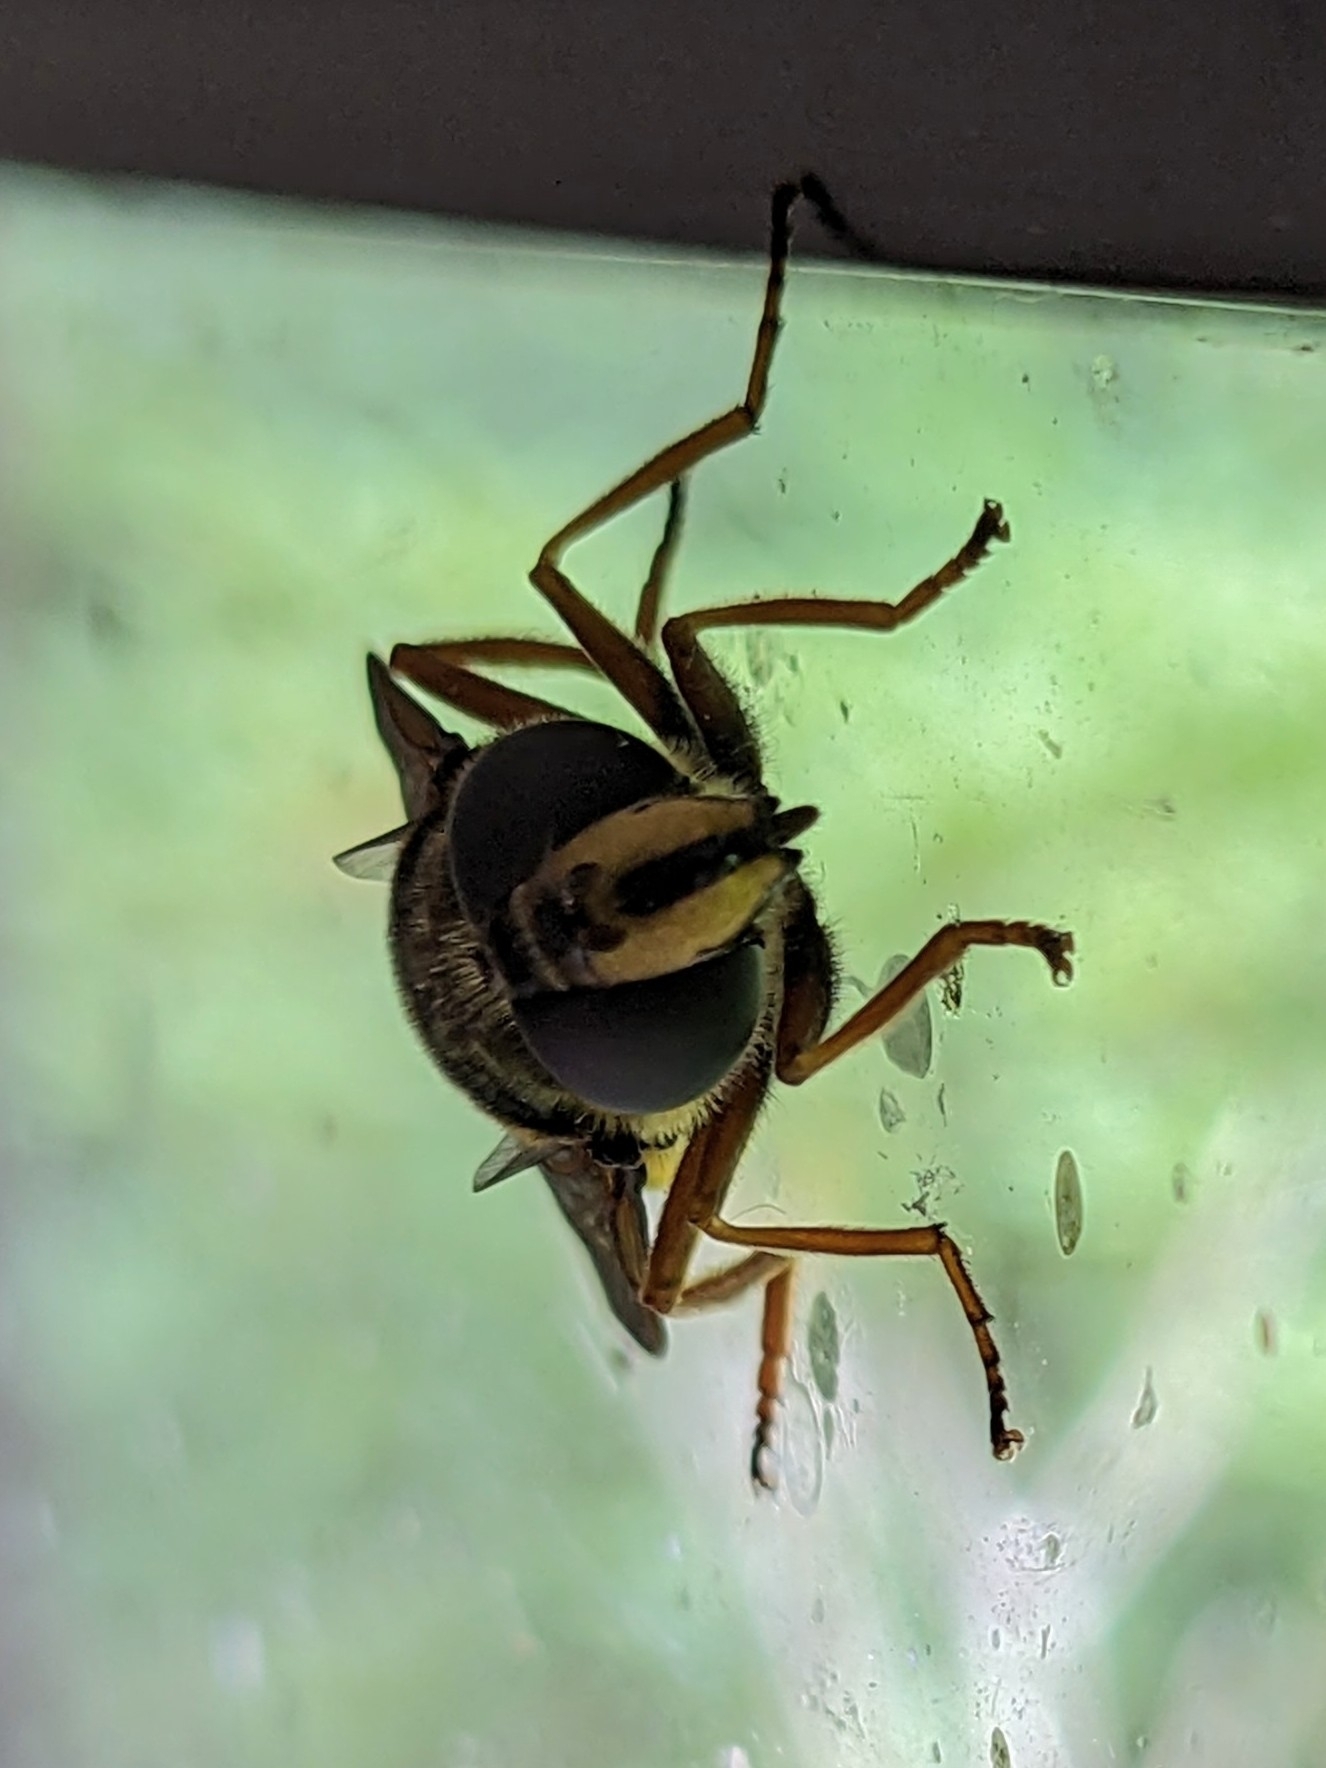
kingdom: Animalia
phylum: Arthropoda
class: Insecta
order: Diptera
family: Syrphidae
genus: Sericomyia
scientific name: Sericomyia silentis
